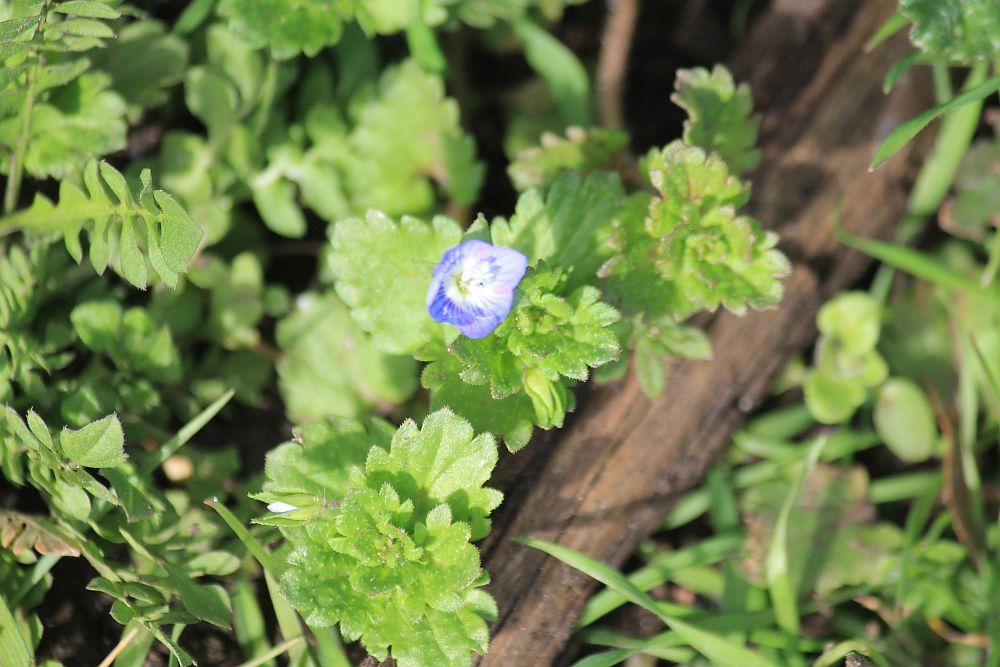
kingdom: Plantae
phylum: Tracheophyta
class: Magnoliopsida
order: Lamiales
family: Plantaginaceae
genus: Veronica
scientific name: Veronica persica
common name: Common field-speedwell
